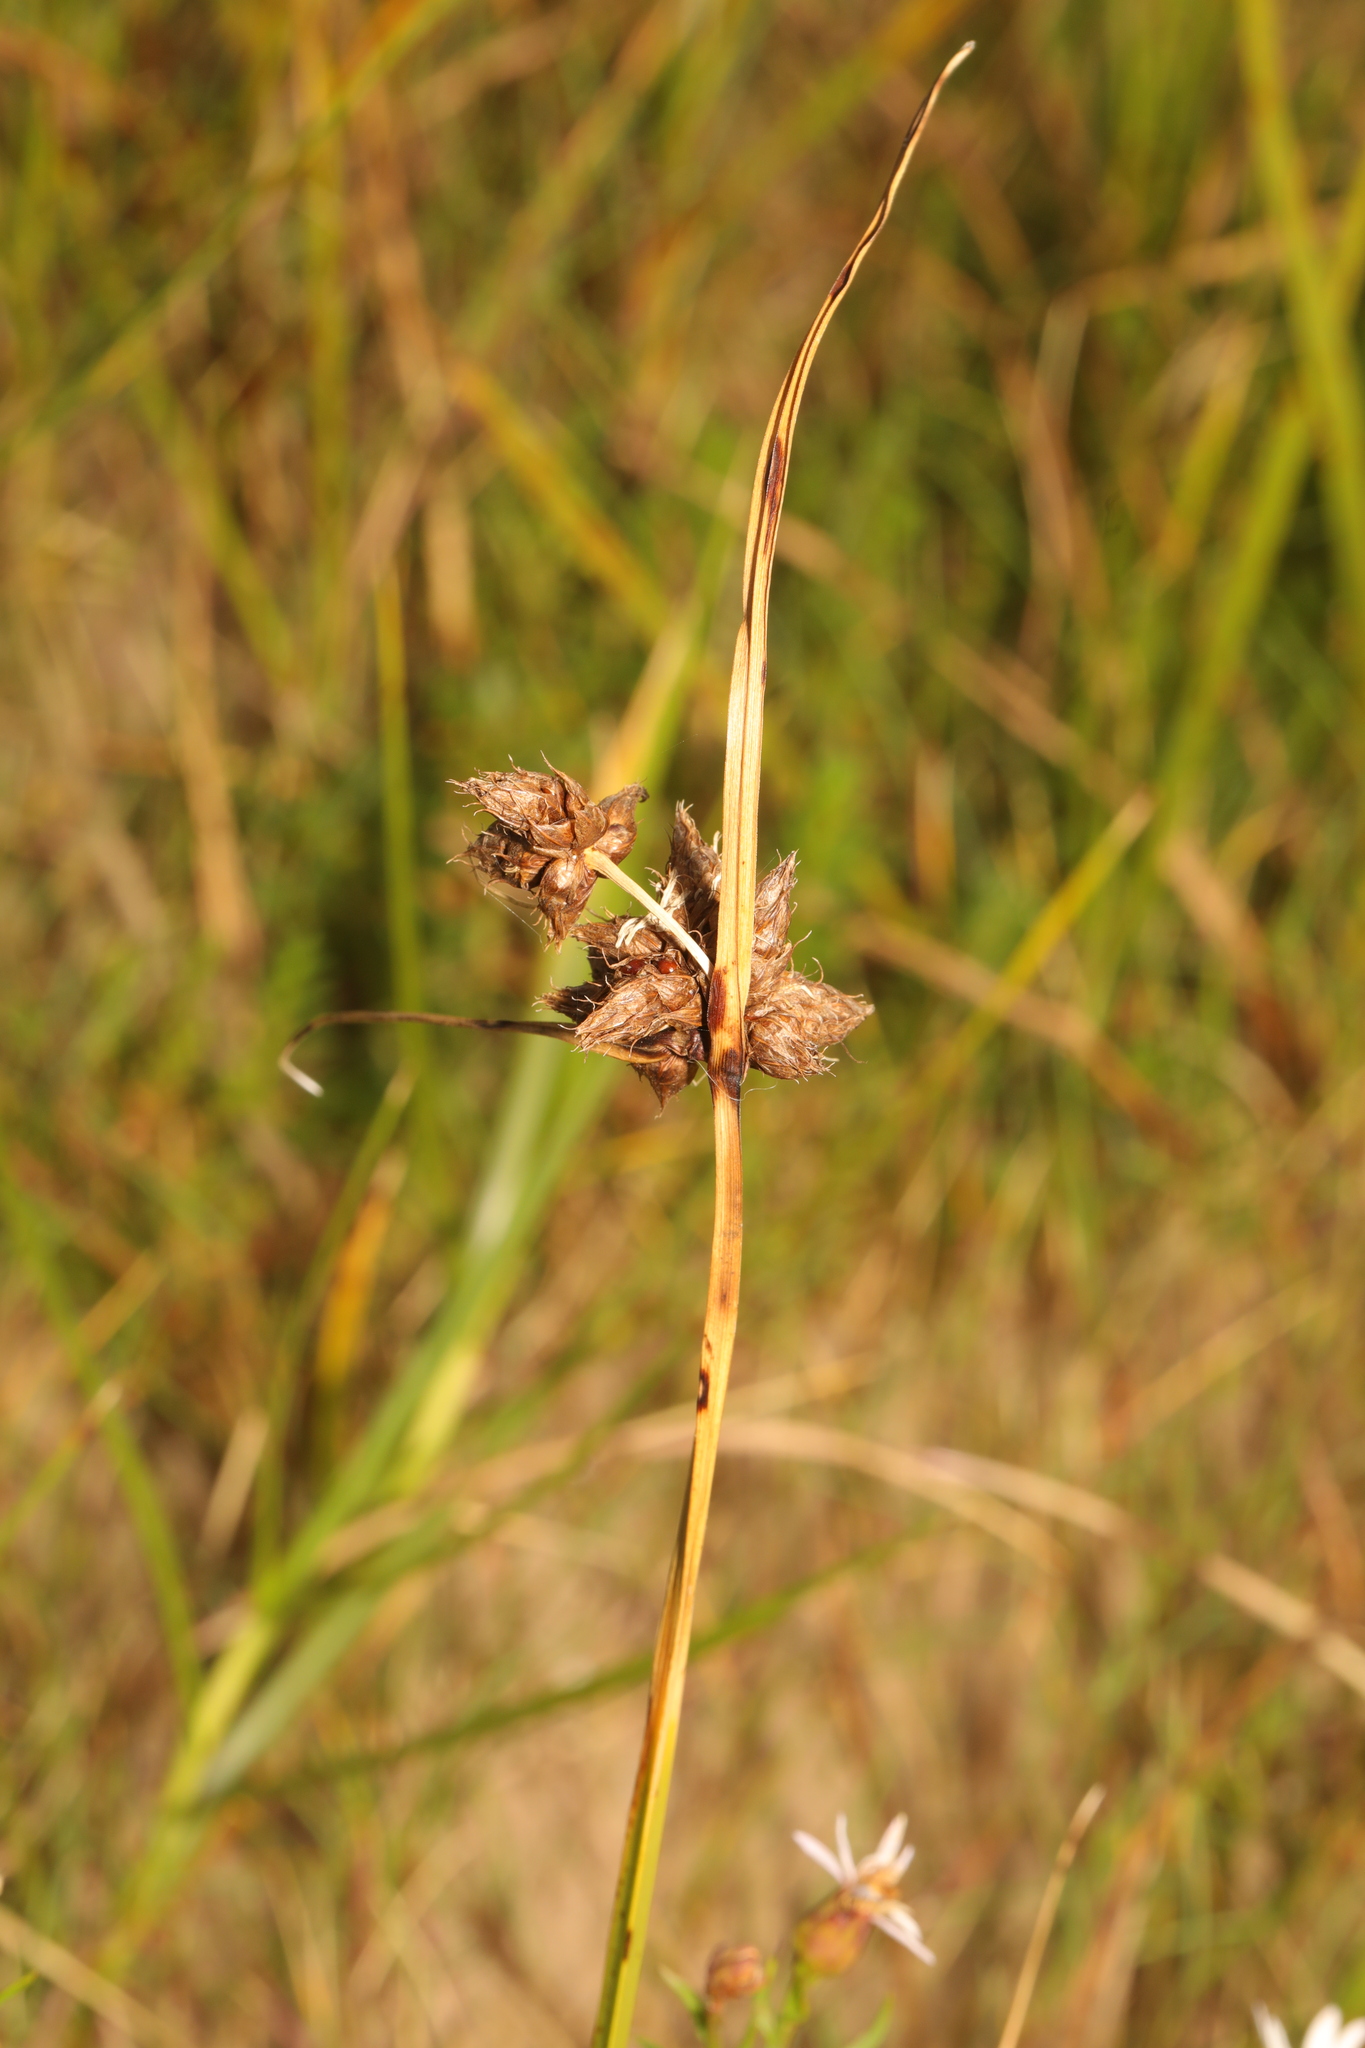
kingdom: Plantae
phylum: Tracheophyta
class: Liliopsida
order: Poales
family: Cyperaceae
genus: Bolboschoenus
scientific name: Bolboschoenus maritimus
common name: Sea club-rush
